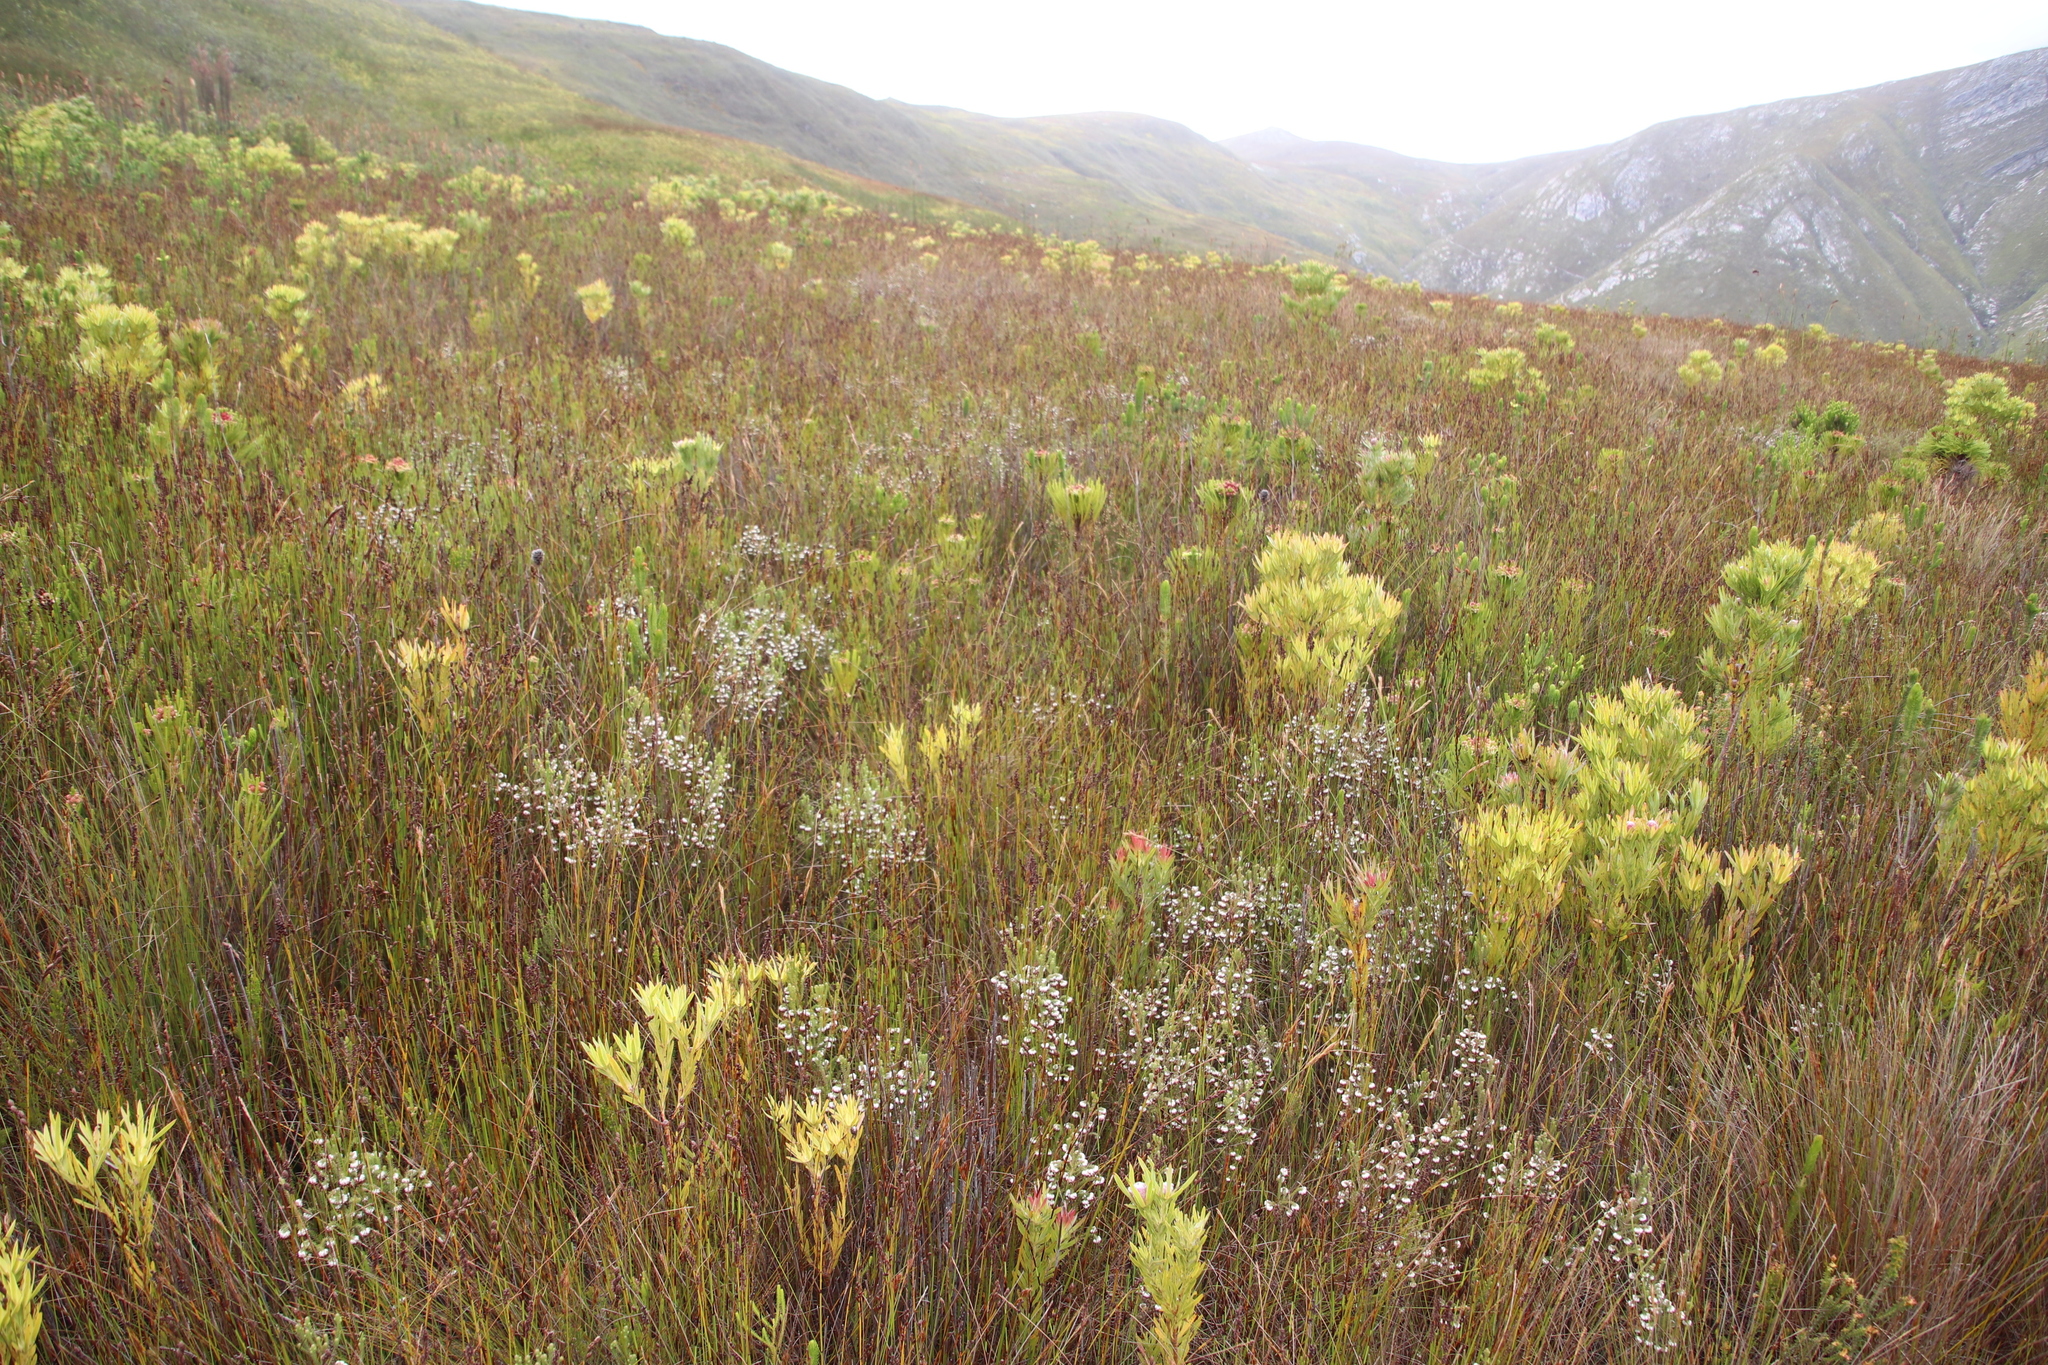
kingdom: Plantae
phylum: Tracheophyta
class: Magnoliopsida
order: Ericales
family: Ericaceae
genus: Erica
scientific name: Erica cumuliflora
